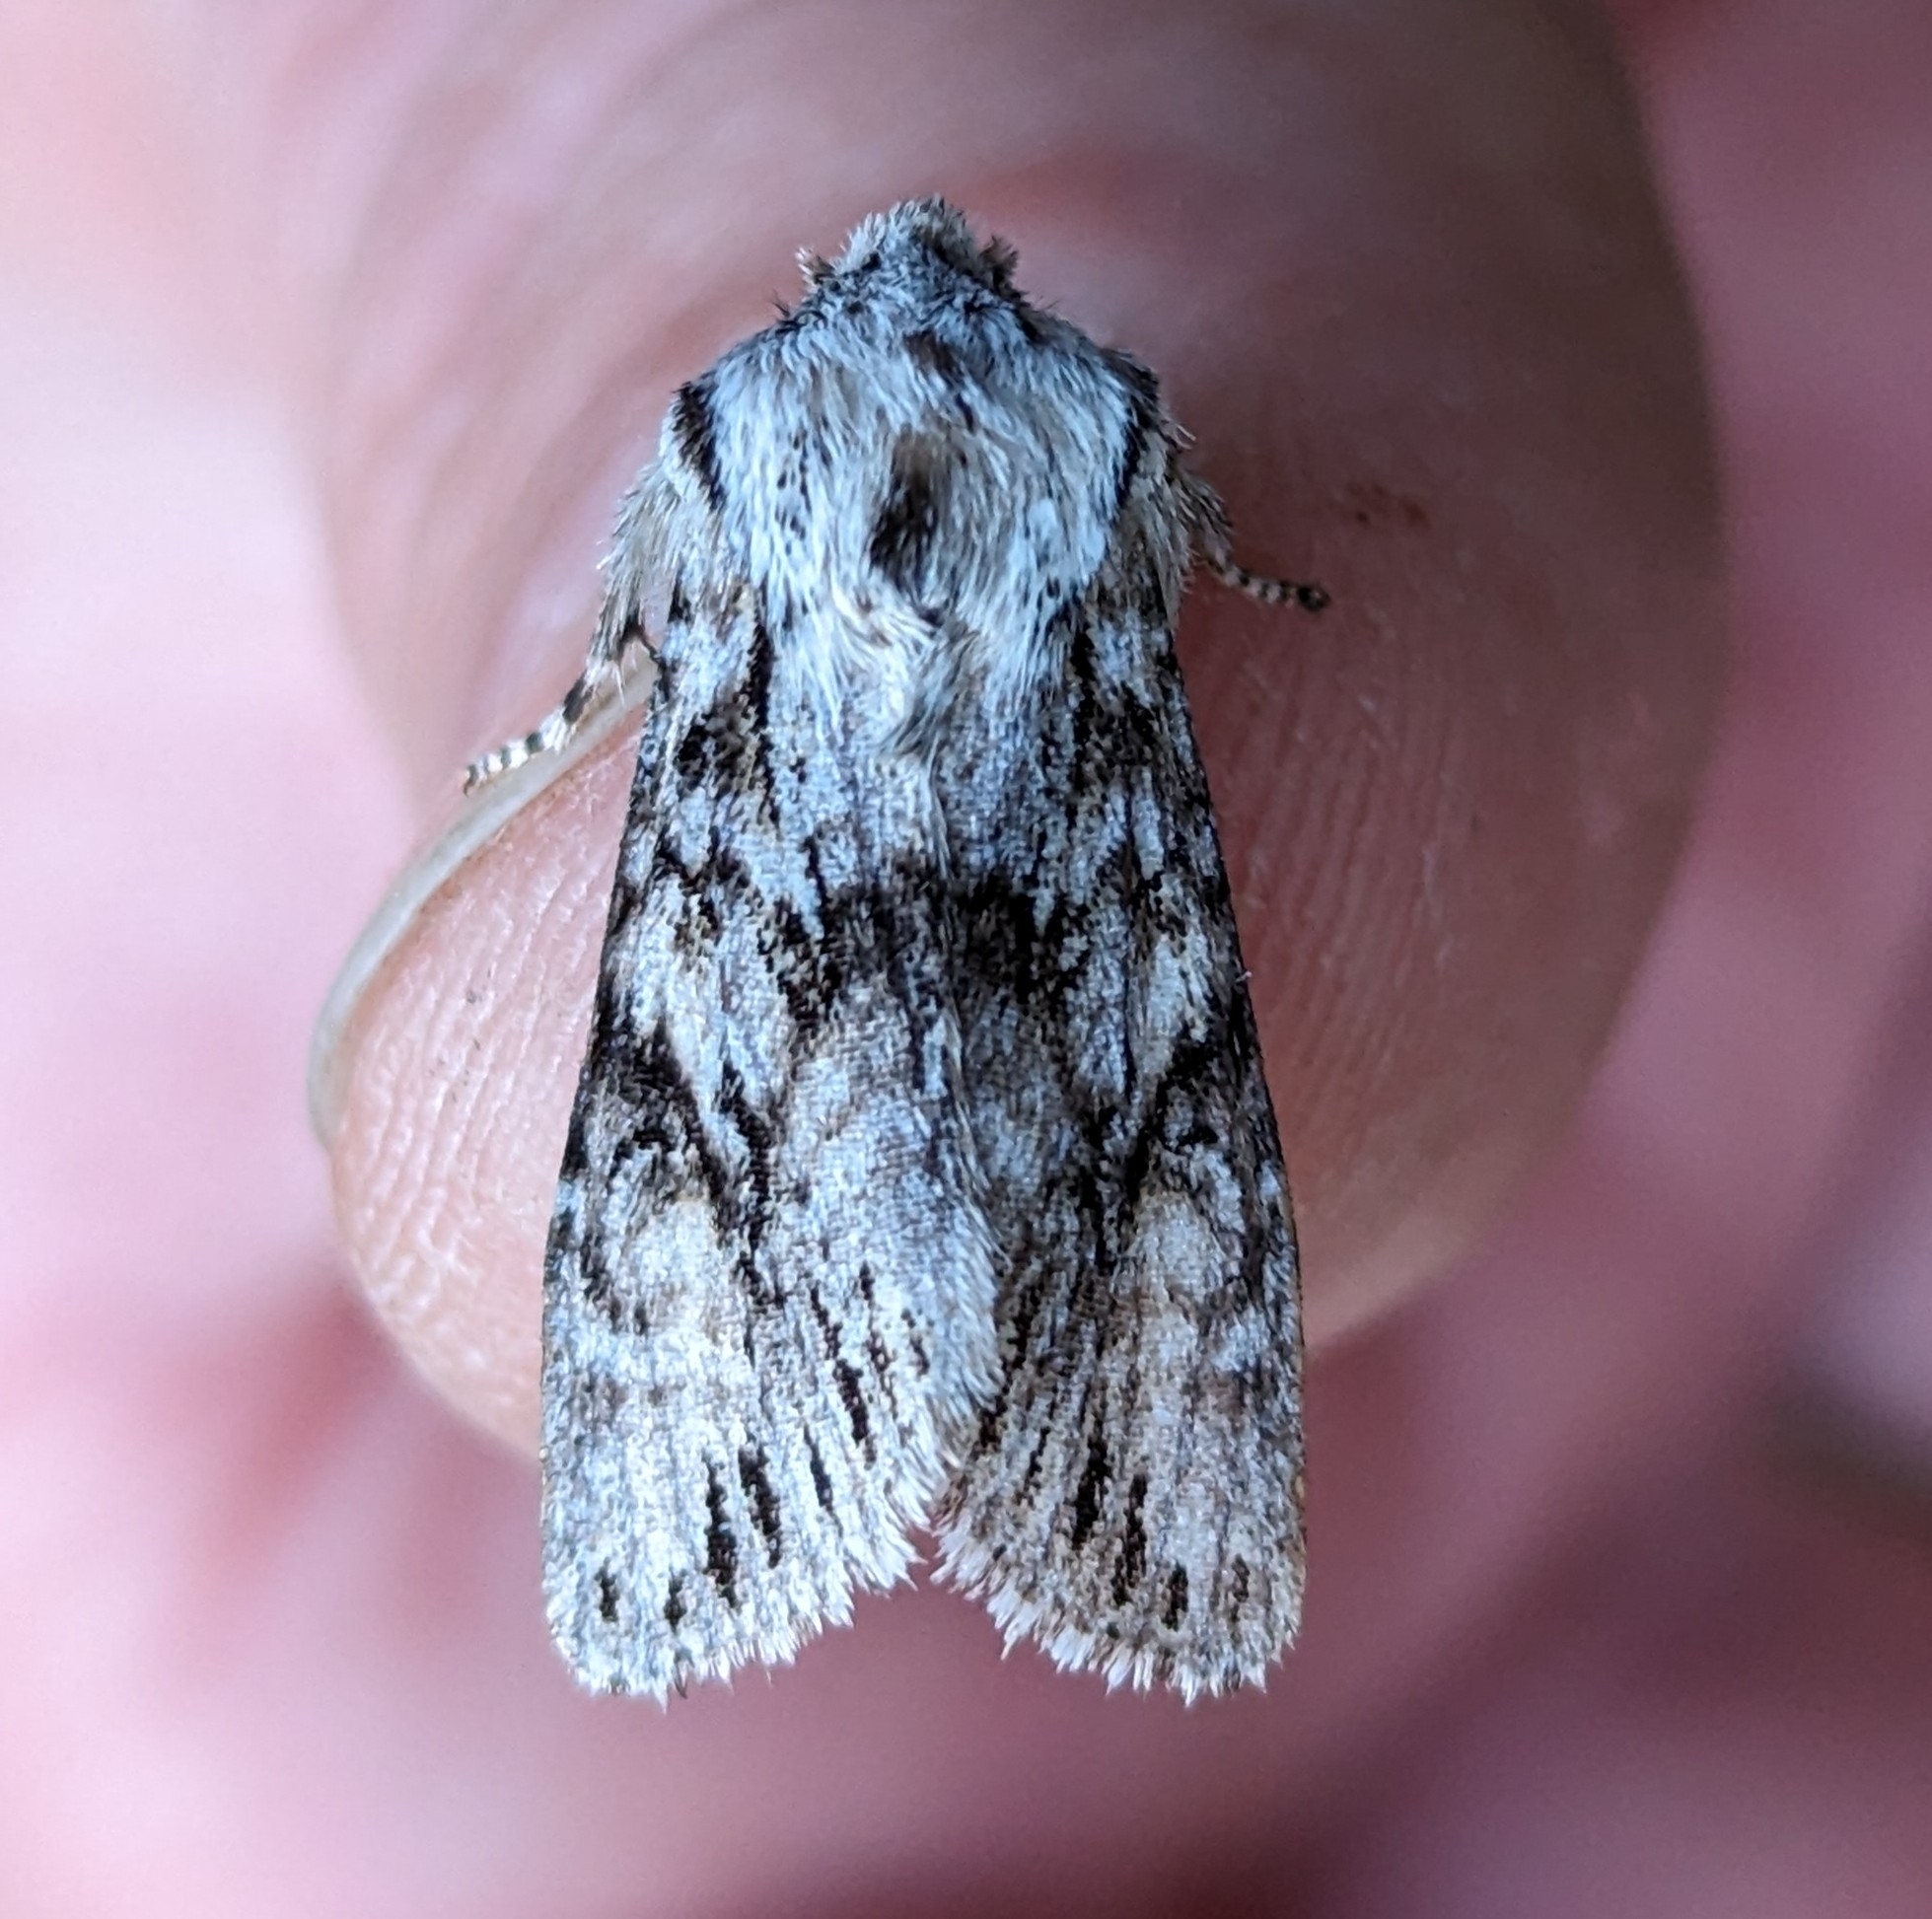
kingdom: Animalia
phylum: Arthropoda
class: Insecta
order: Lepidoptera
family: Noctuidae
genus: Egira
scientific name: Egira simplex
